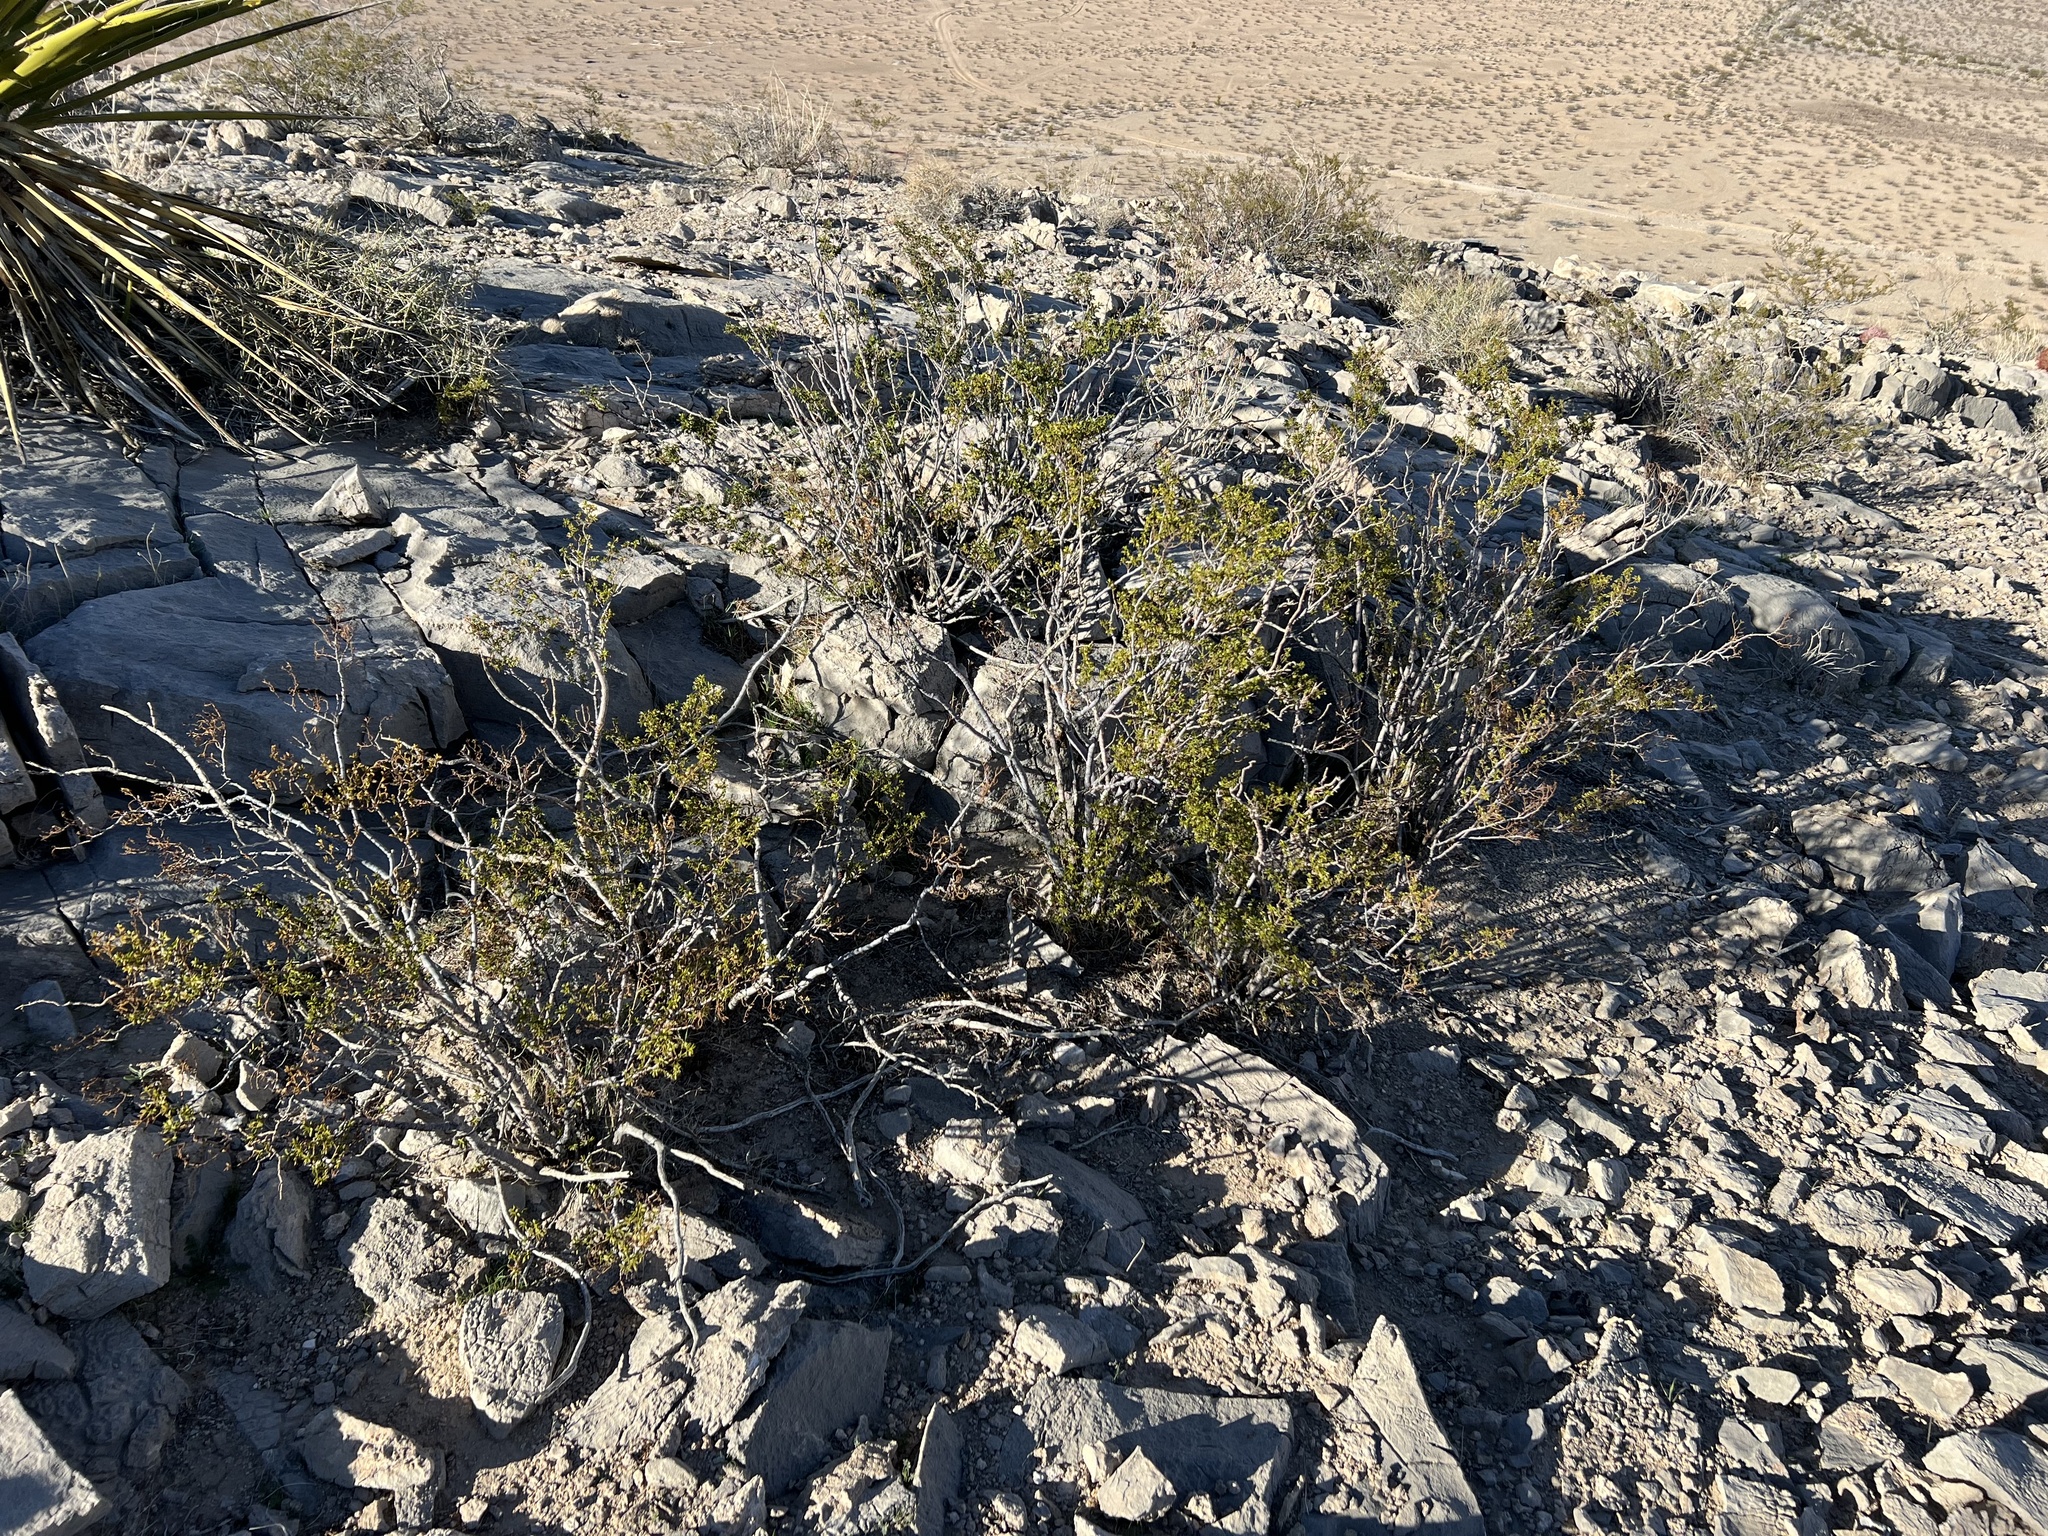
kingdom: Plantae
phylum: Tracheophyta
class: Magnoliopsida
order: Zygophyllales
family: Zygophyllaceae
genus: Larrea
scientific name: Larrea tridentata
